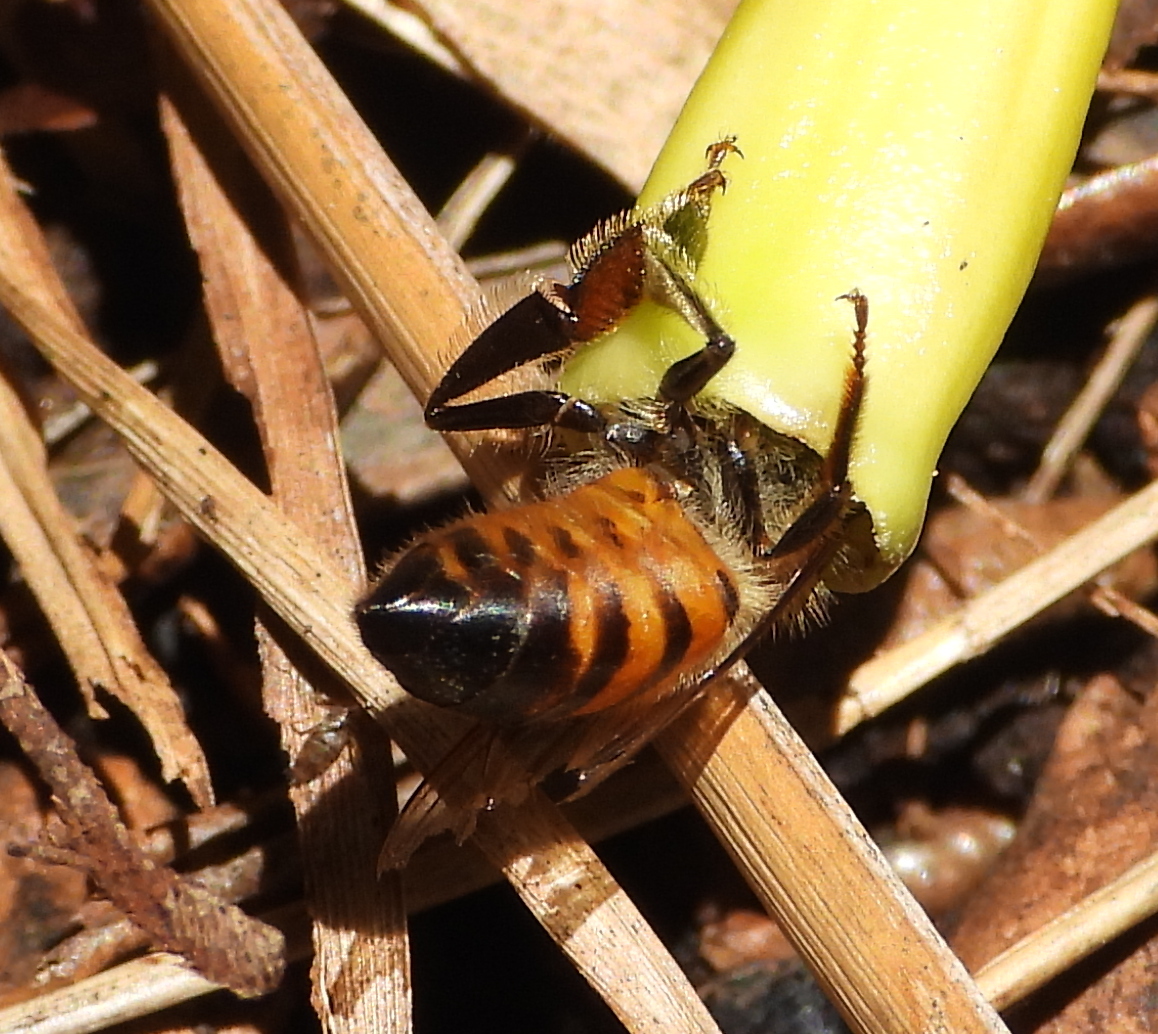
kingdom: Animalia
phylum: Arthropoda
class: Insecta
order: Hymenoptera
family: Apidae
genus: Apis
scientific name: Apis mellifera
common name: Honey bee
